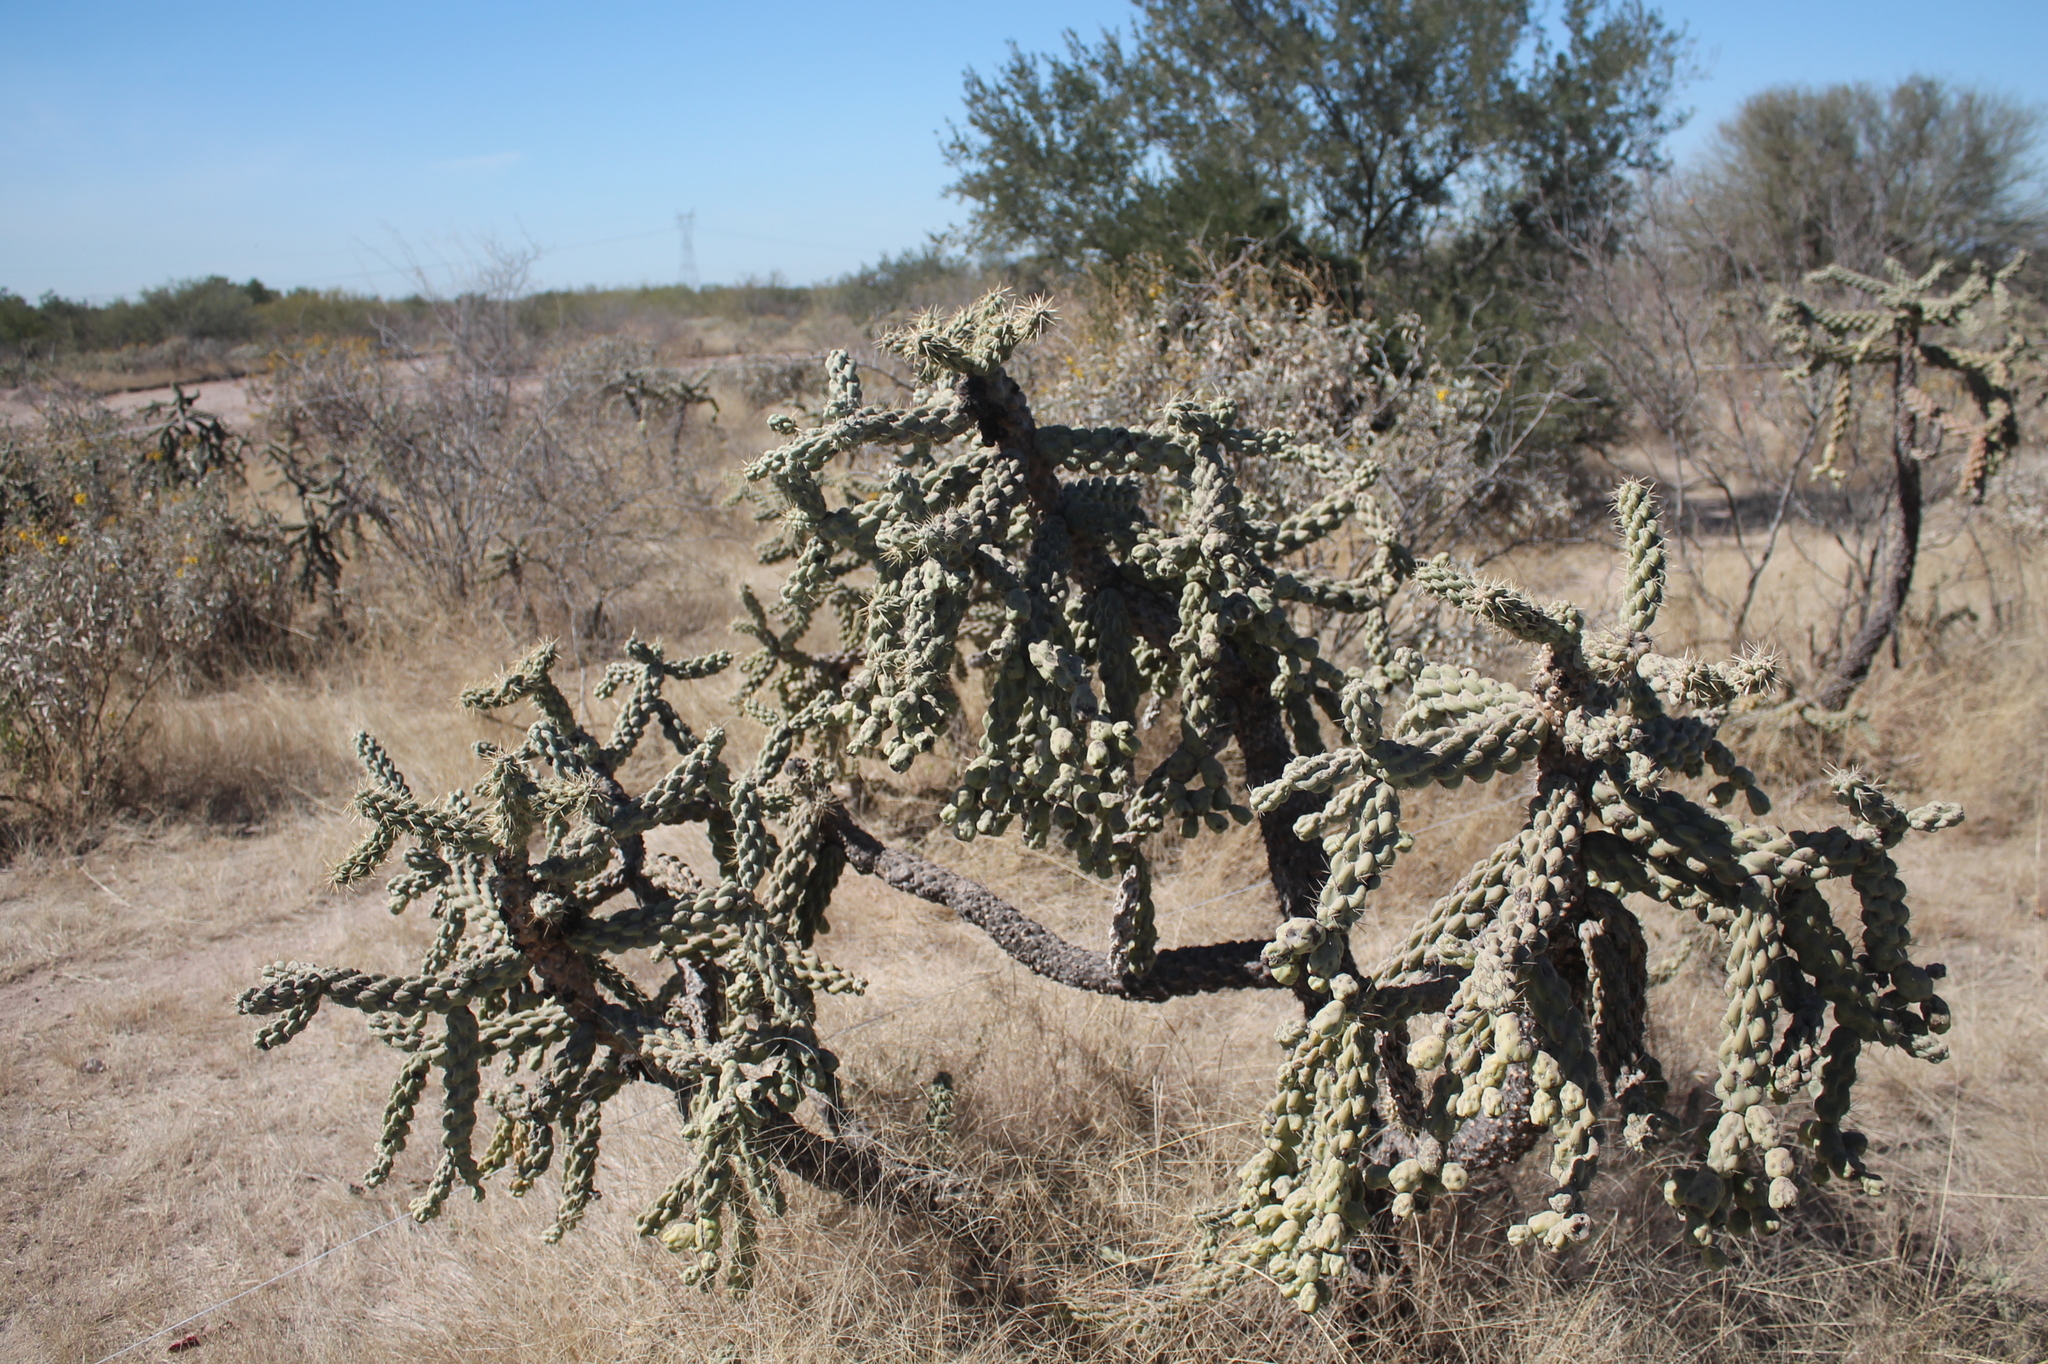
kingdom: Plantae
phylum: Tracheophyta
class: Magnoliopsida
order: Caryophyllales
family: Cactaceae
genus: Cylindropuntia
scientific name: Cylindropuntia cholla
